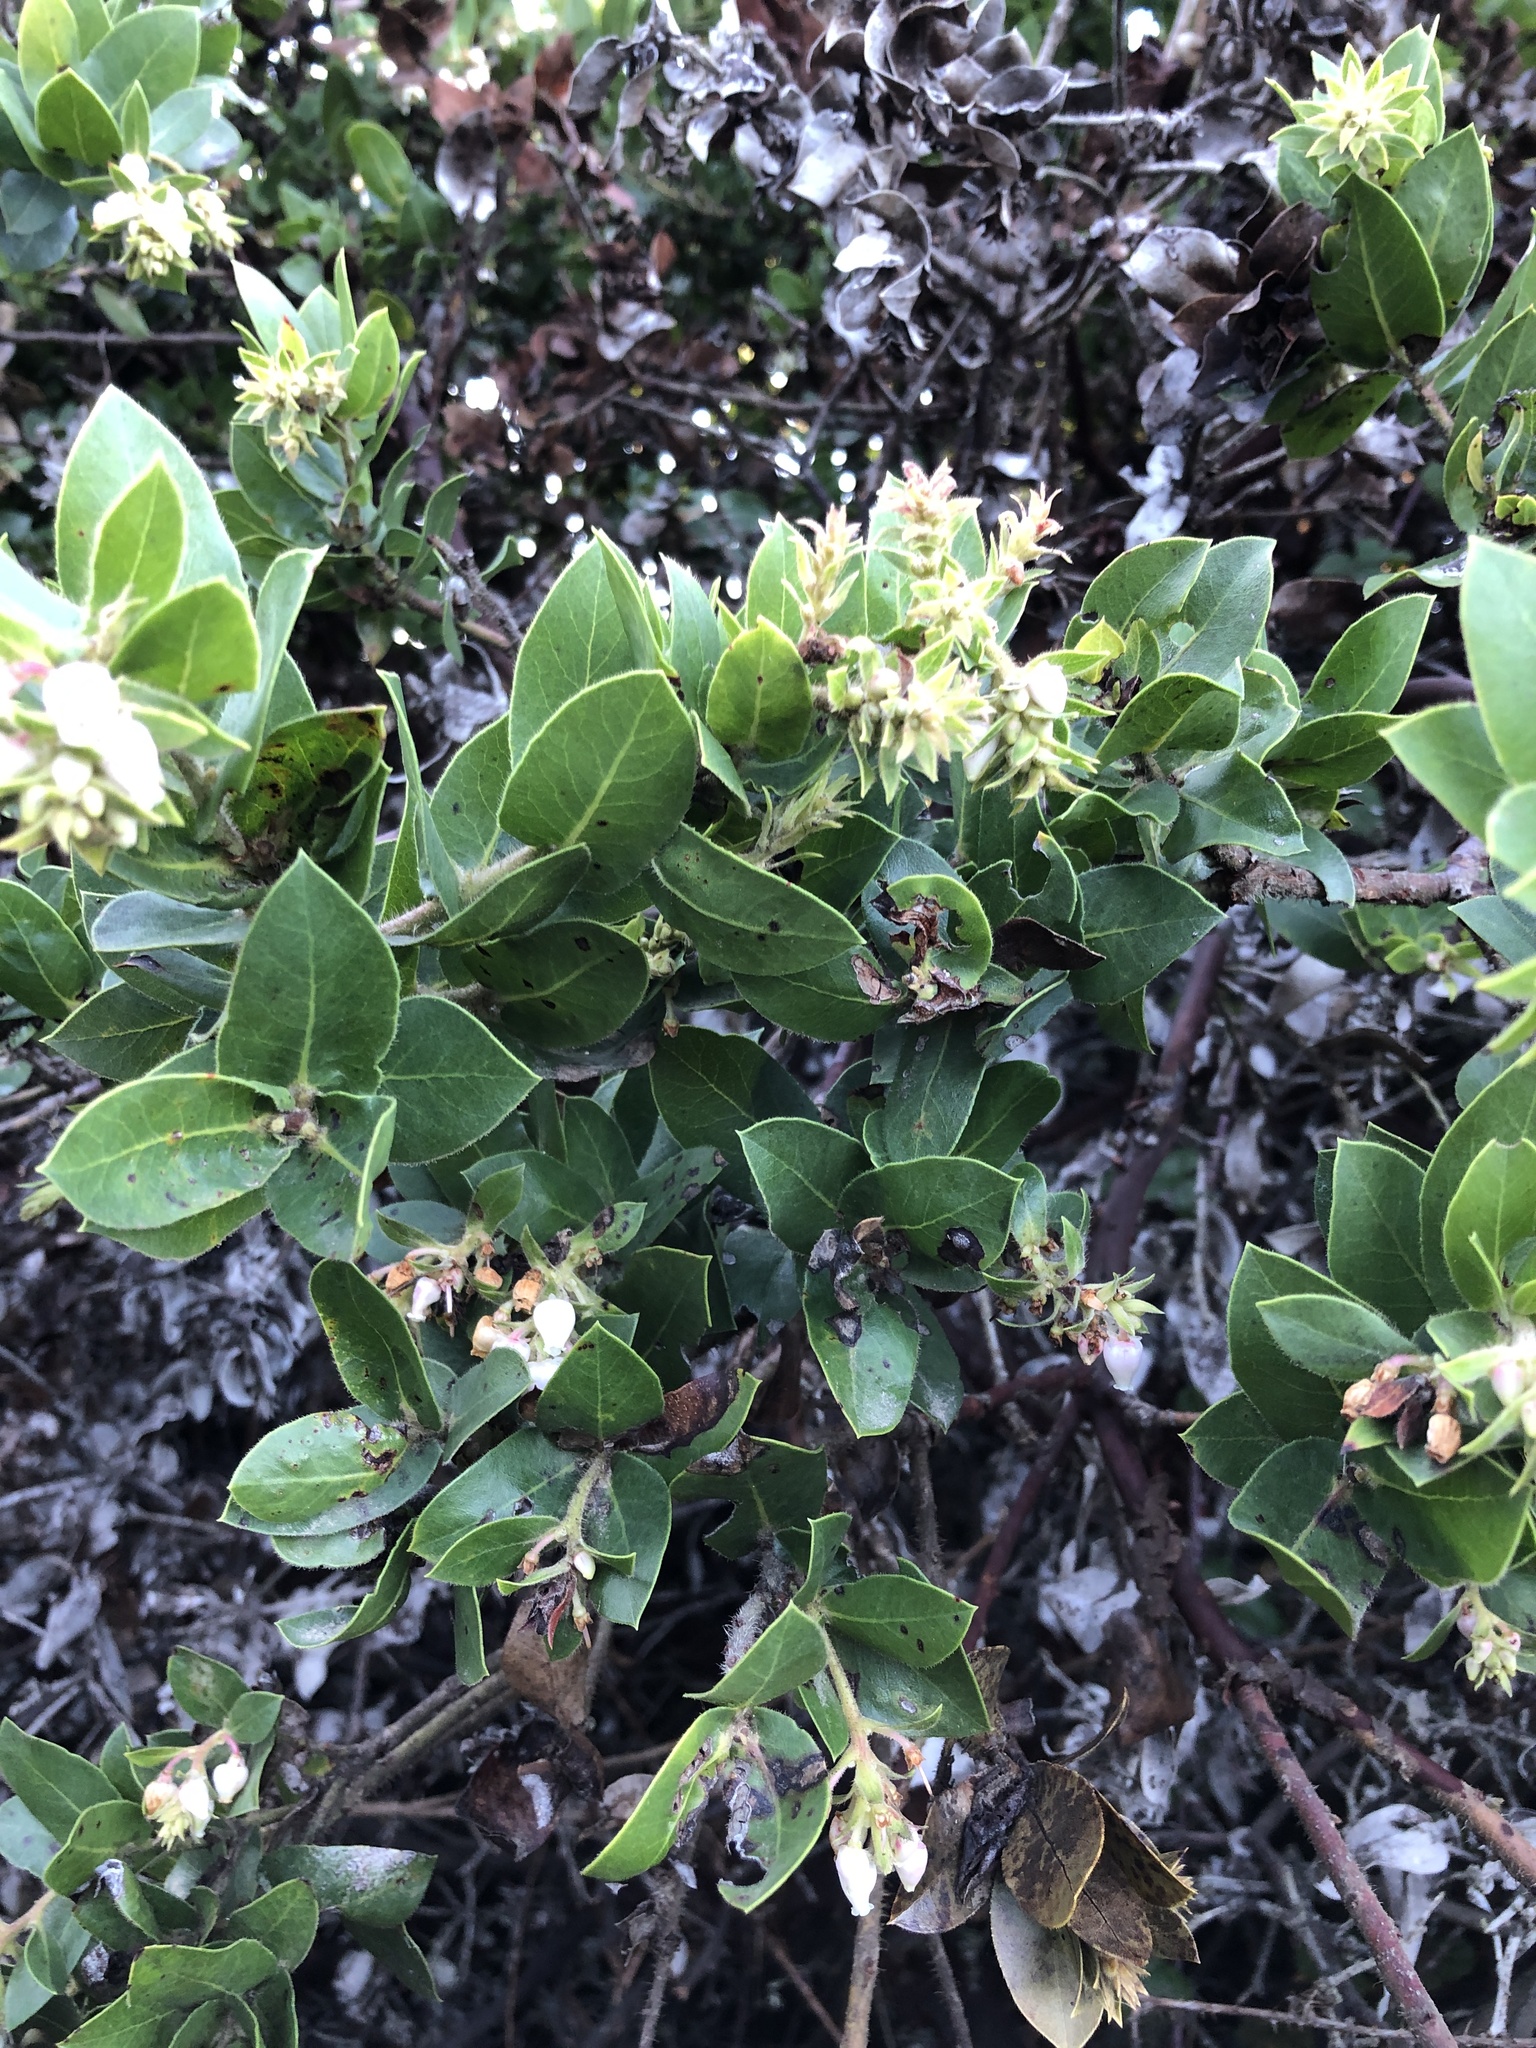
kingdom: Plantae
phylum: Tracheophyta
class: Magnoliopsida
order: Ericales
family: Ericaceae
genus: Arctostaphylos
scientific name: Arctostaphylos montaraensis
